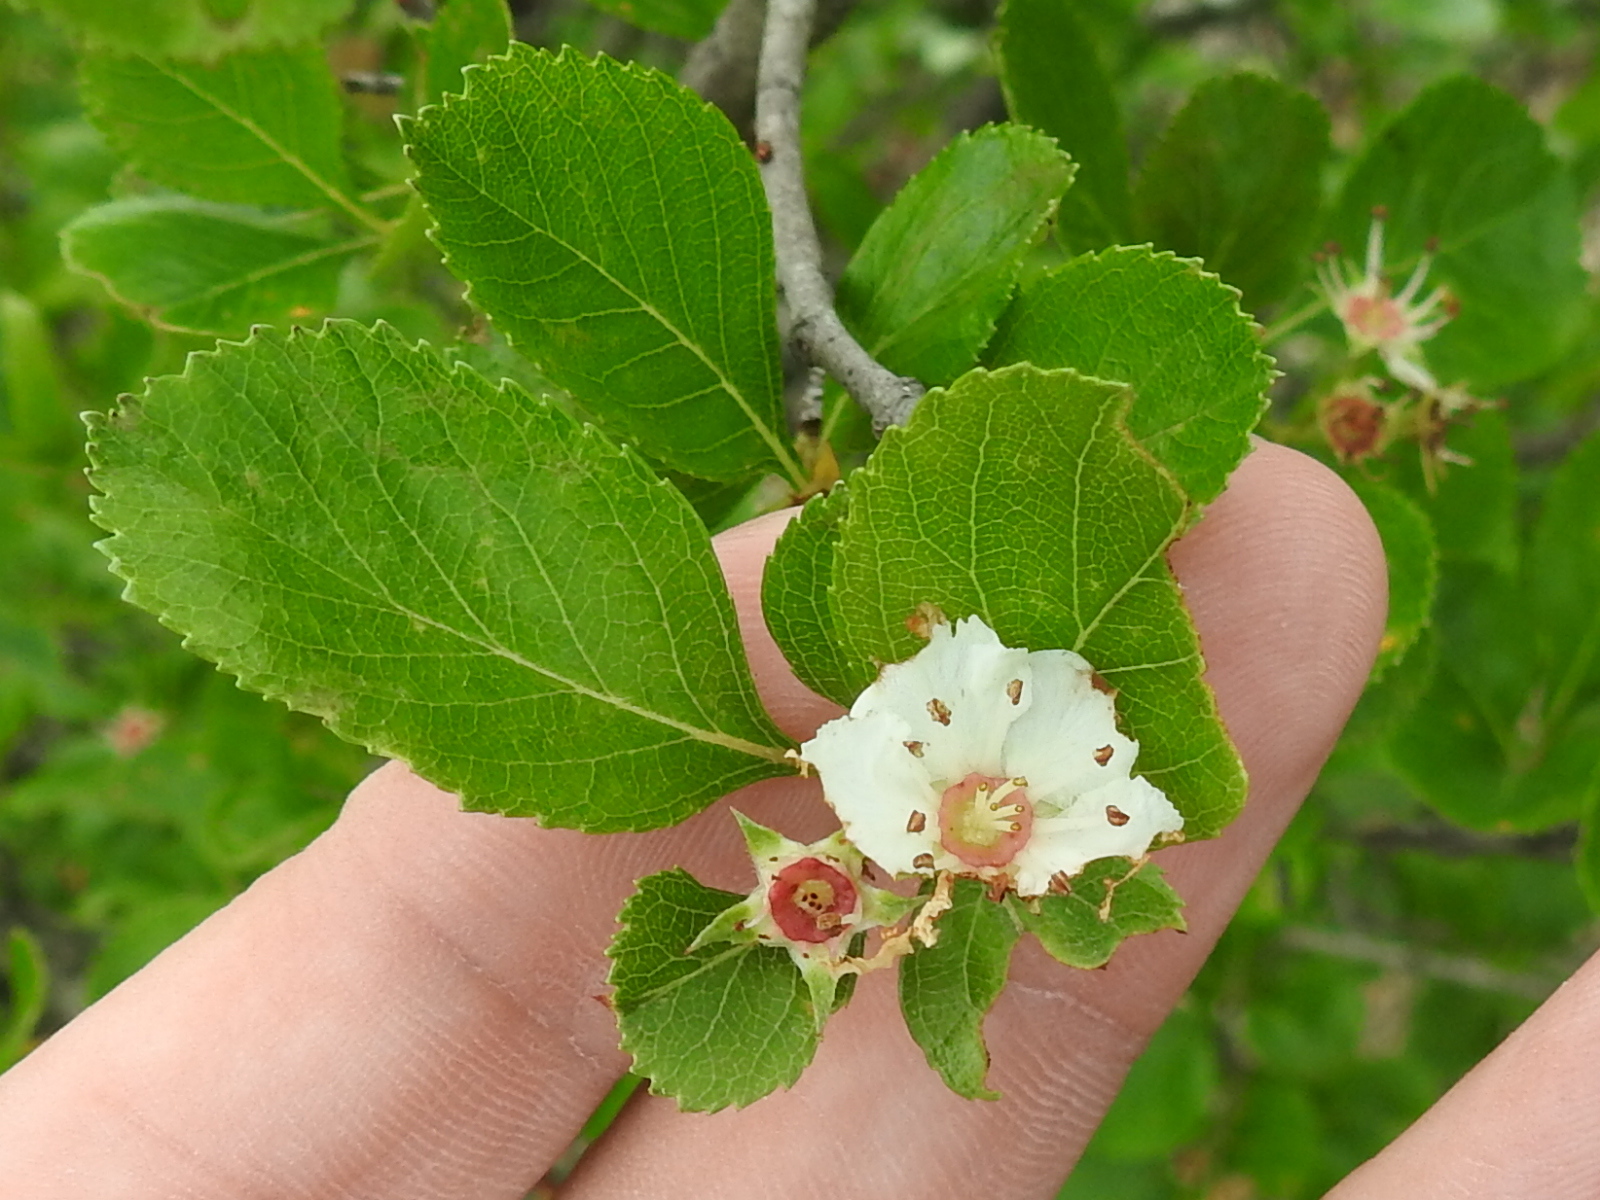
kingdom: Plantae
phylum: Tracheophyta
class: Magnoliopsida
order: Rosales
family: Rosaceae
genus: Crataegus
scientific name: Crataegus reverchonii
